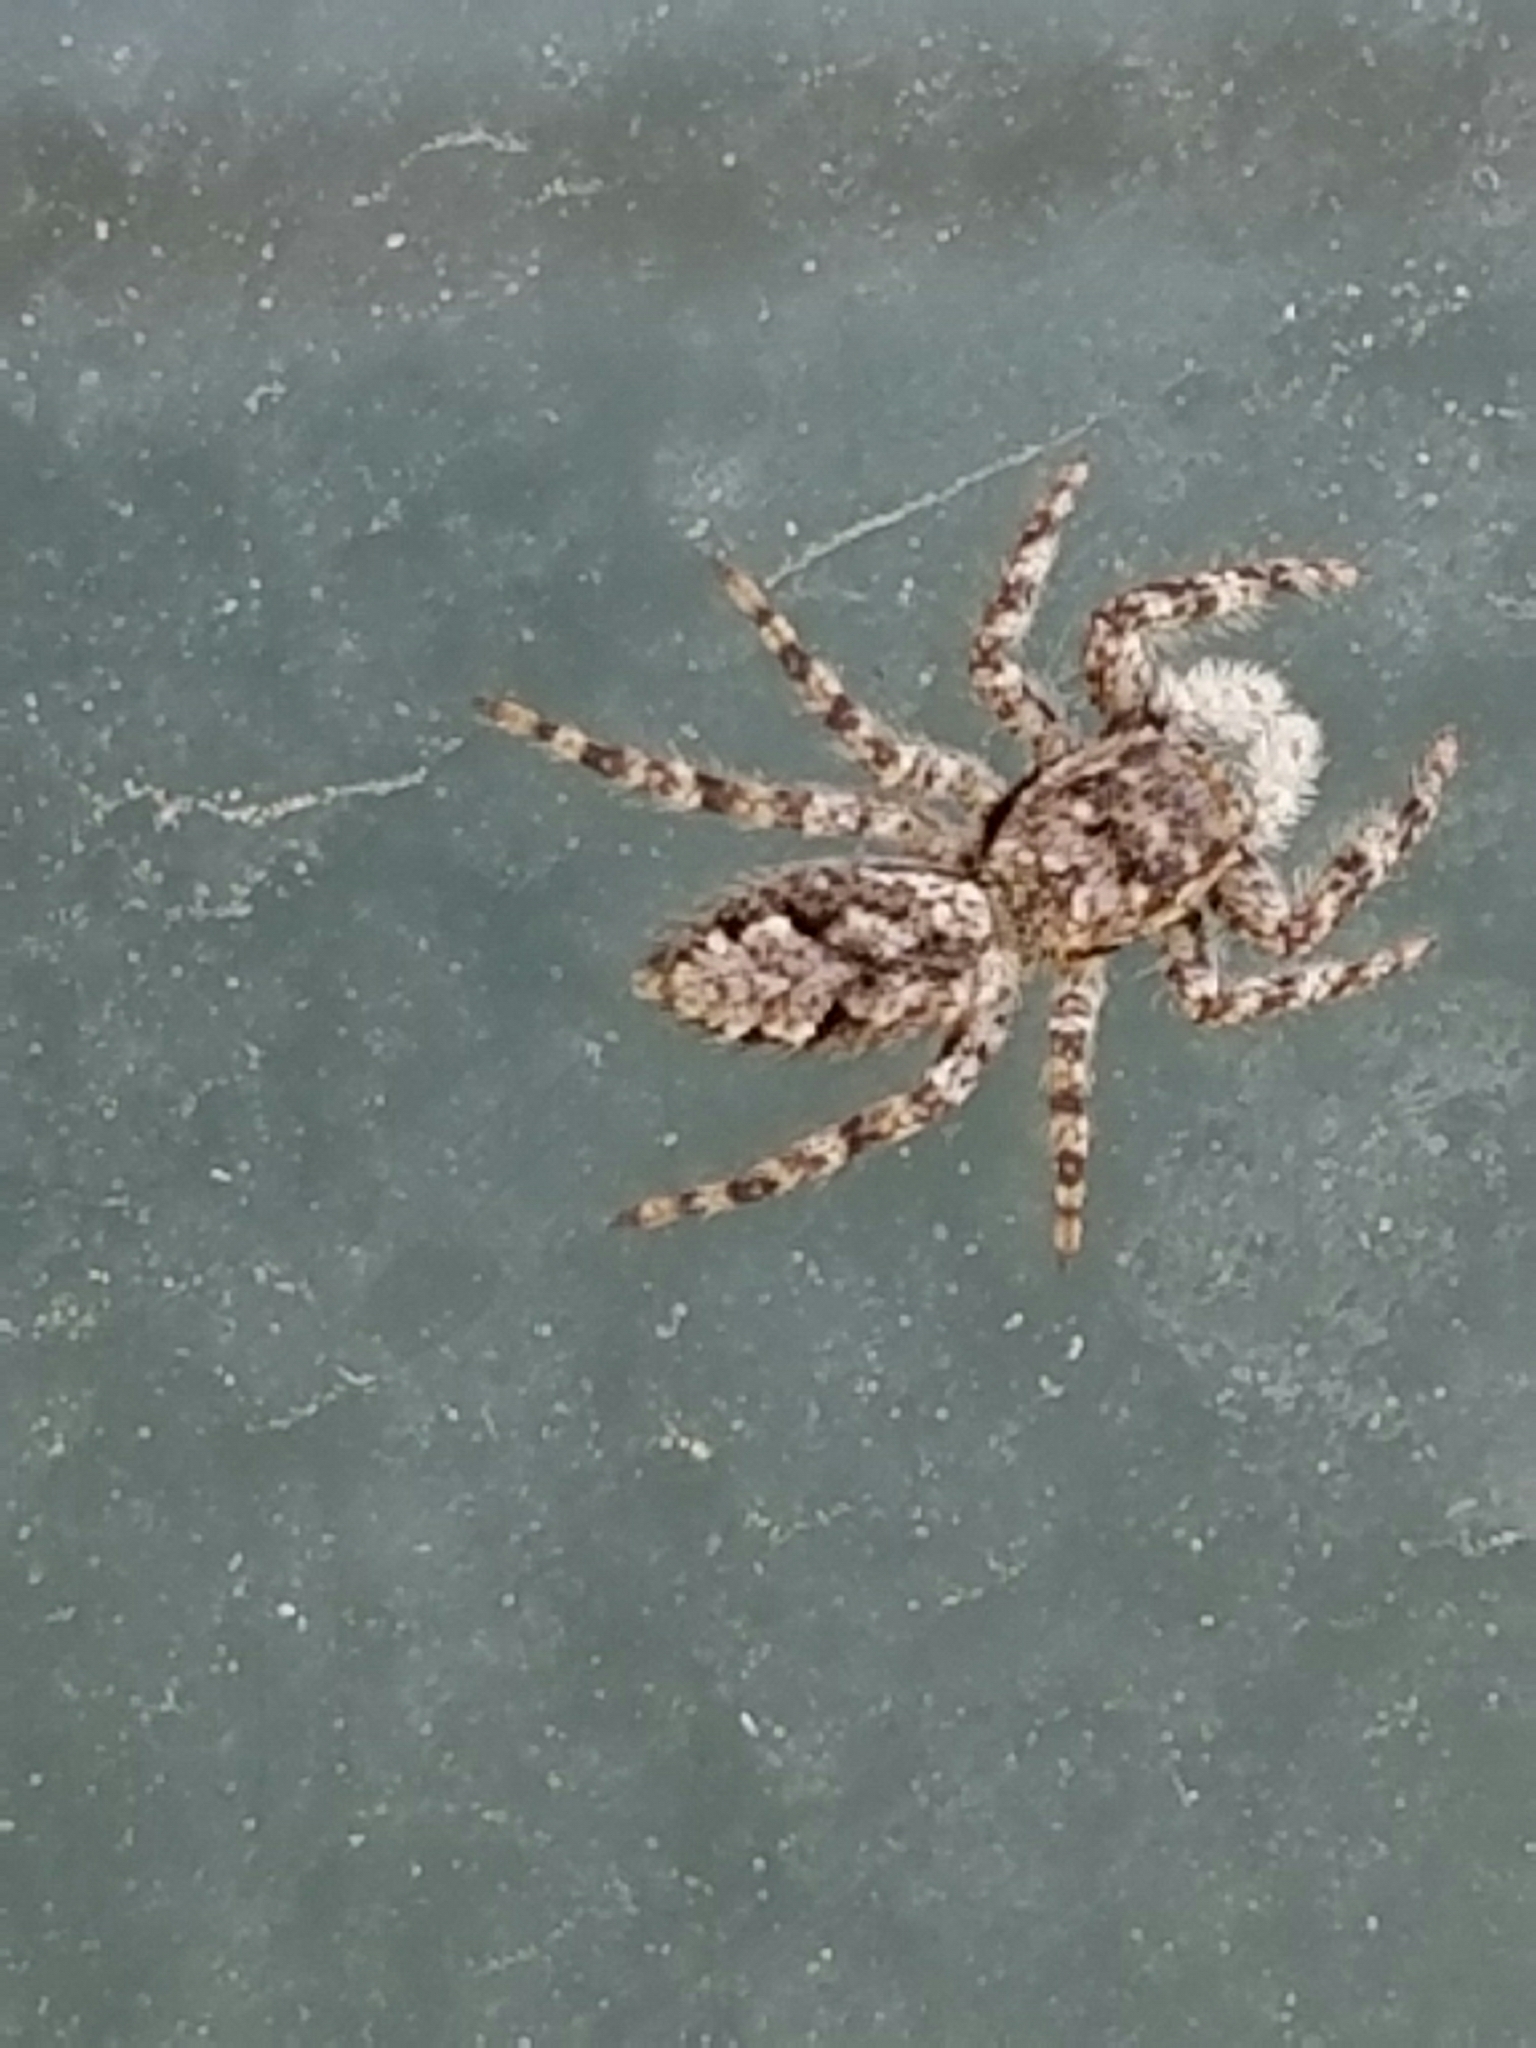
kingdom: Animalia
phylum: Arthropoda
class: Arachnida
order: Araneae
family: Salticidae
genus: Platycryptus
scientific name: Platycryptus undatus
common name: Tan jumping spider
